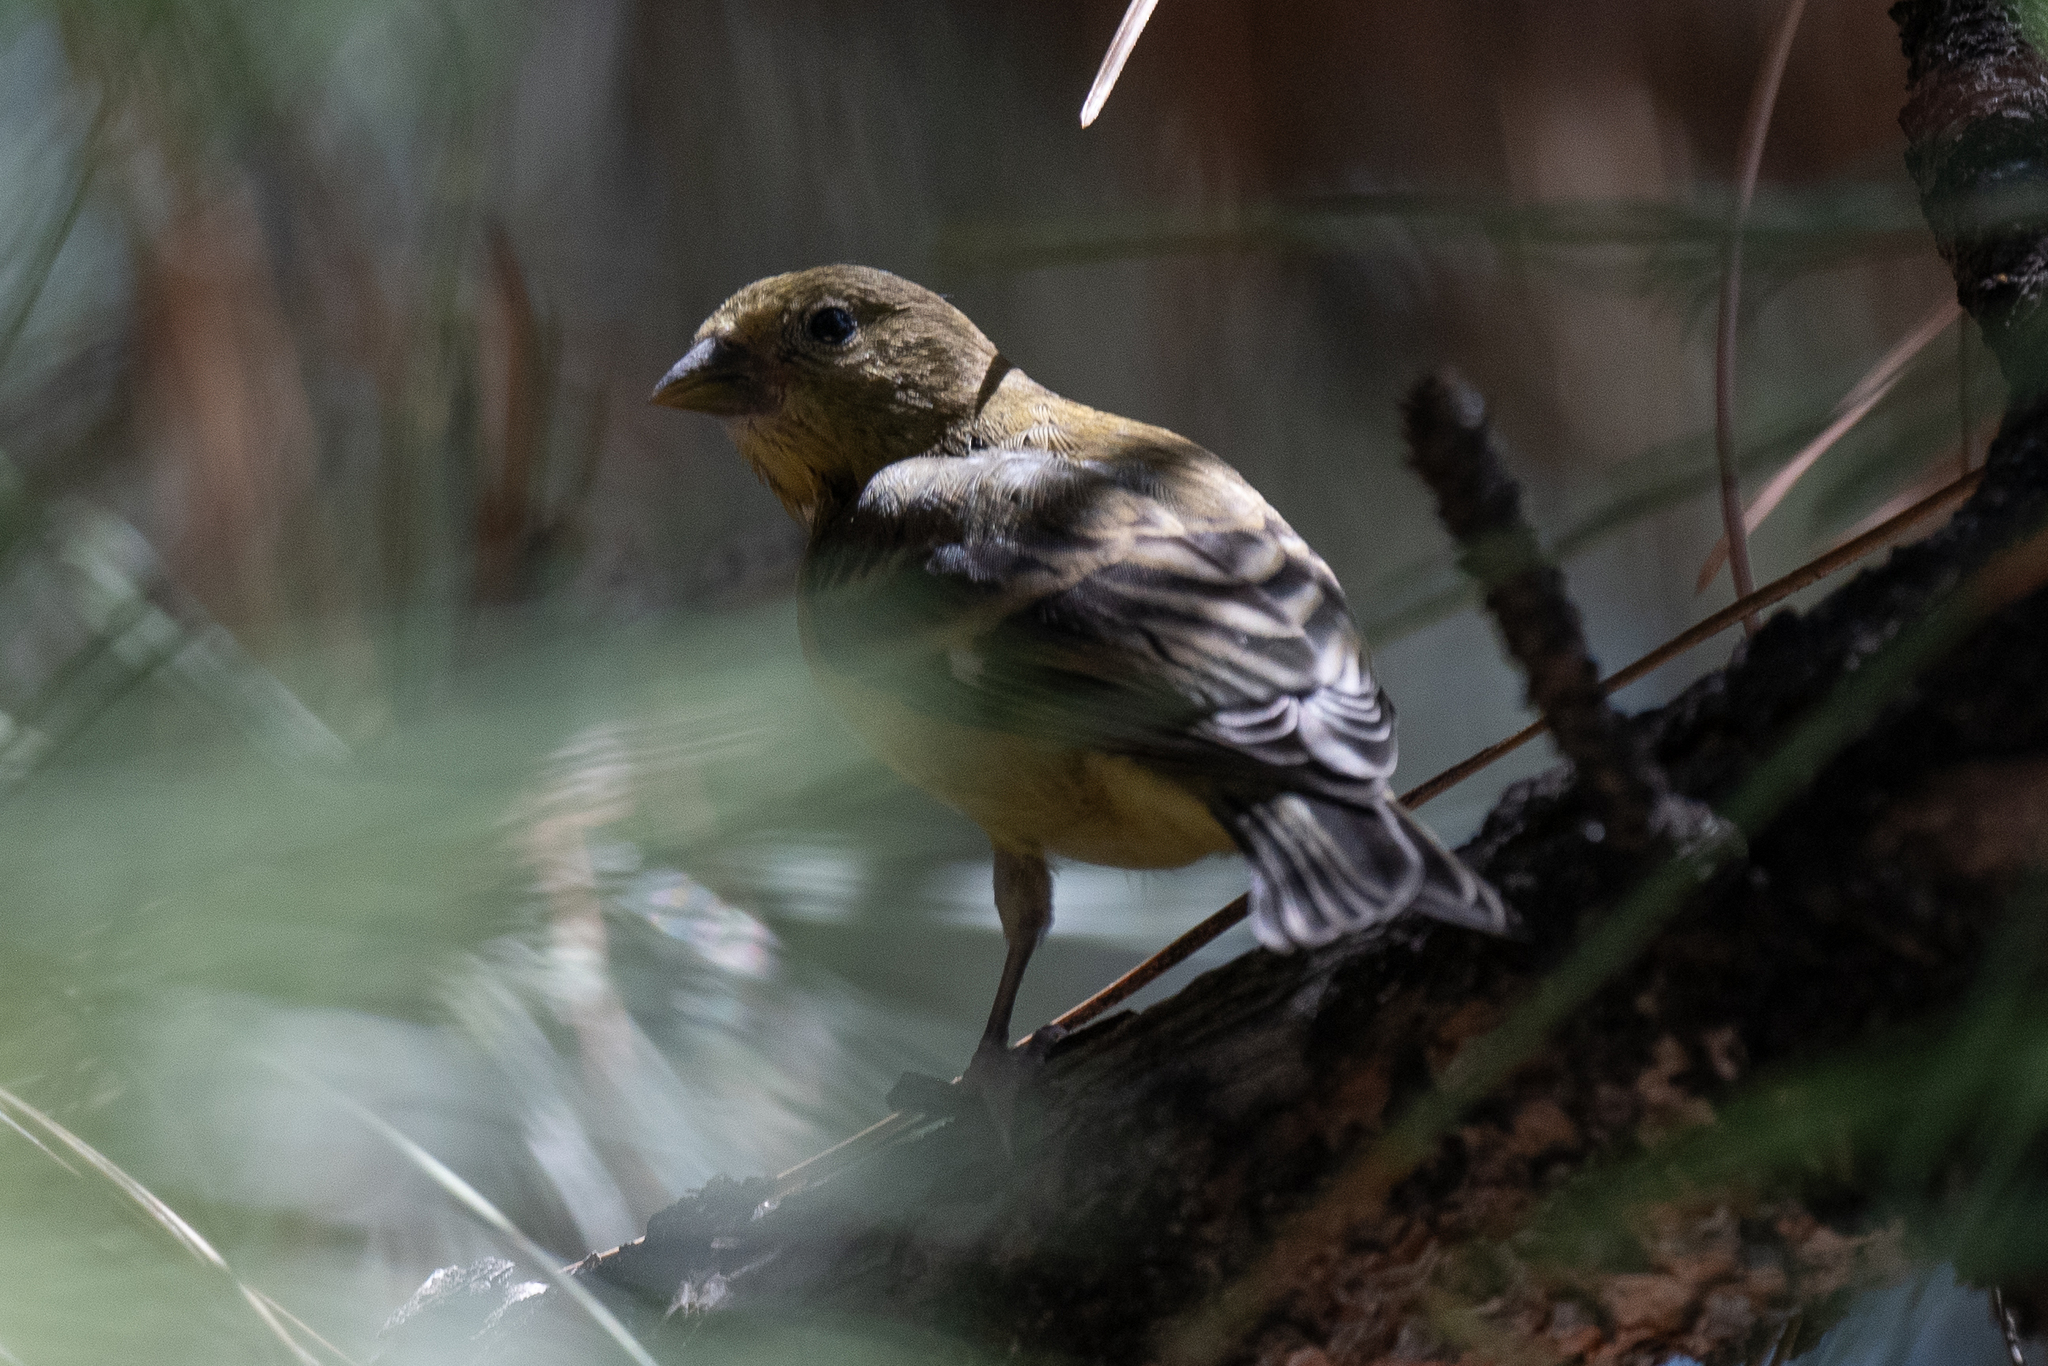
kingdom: Animalia
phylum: Chordata
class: Aves
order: Passeriformes
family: Passeridae
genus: Passer
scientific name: Passer domesticus
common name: House sparrow
